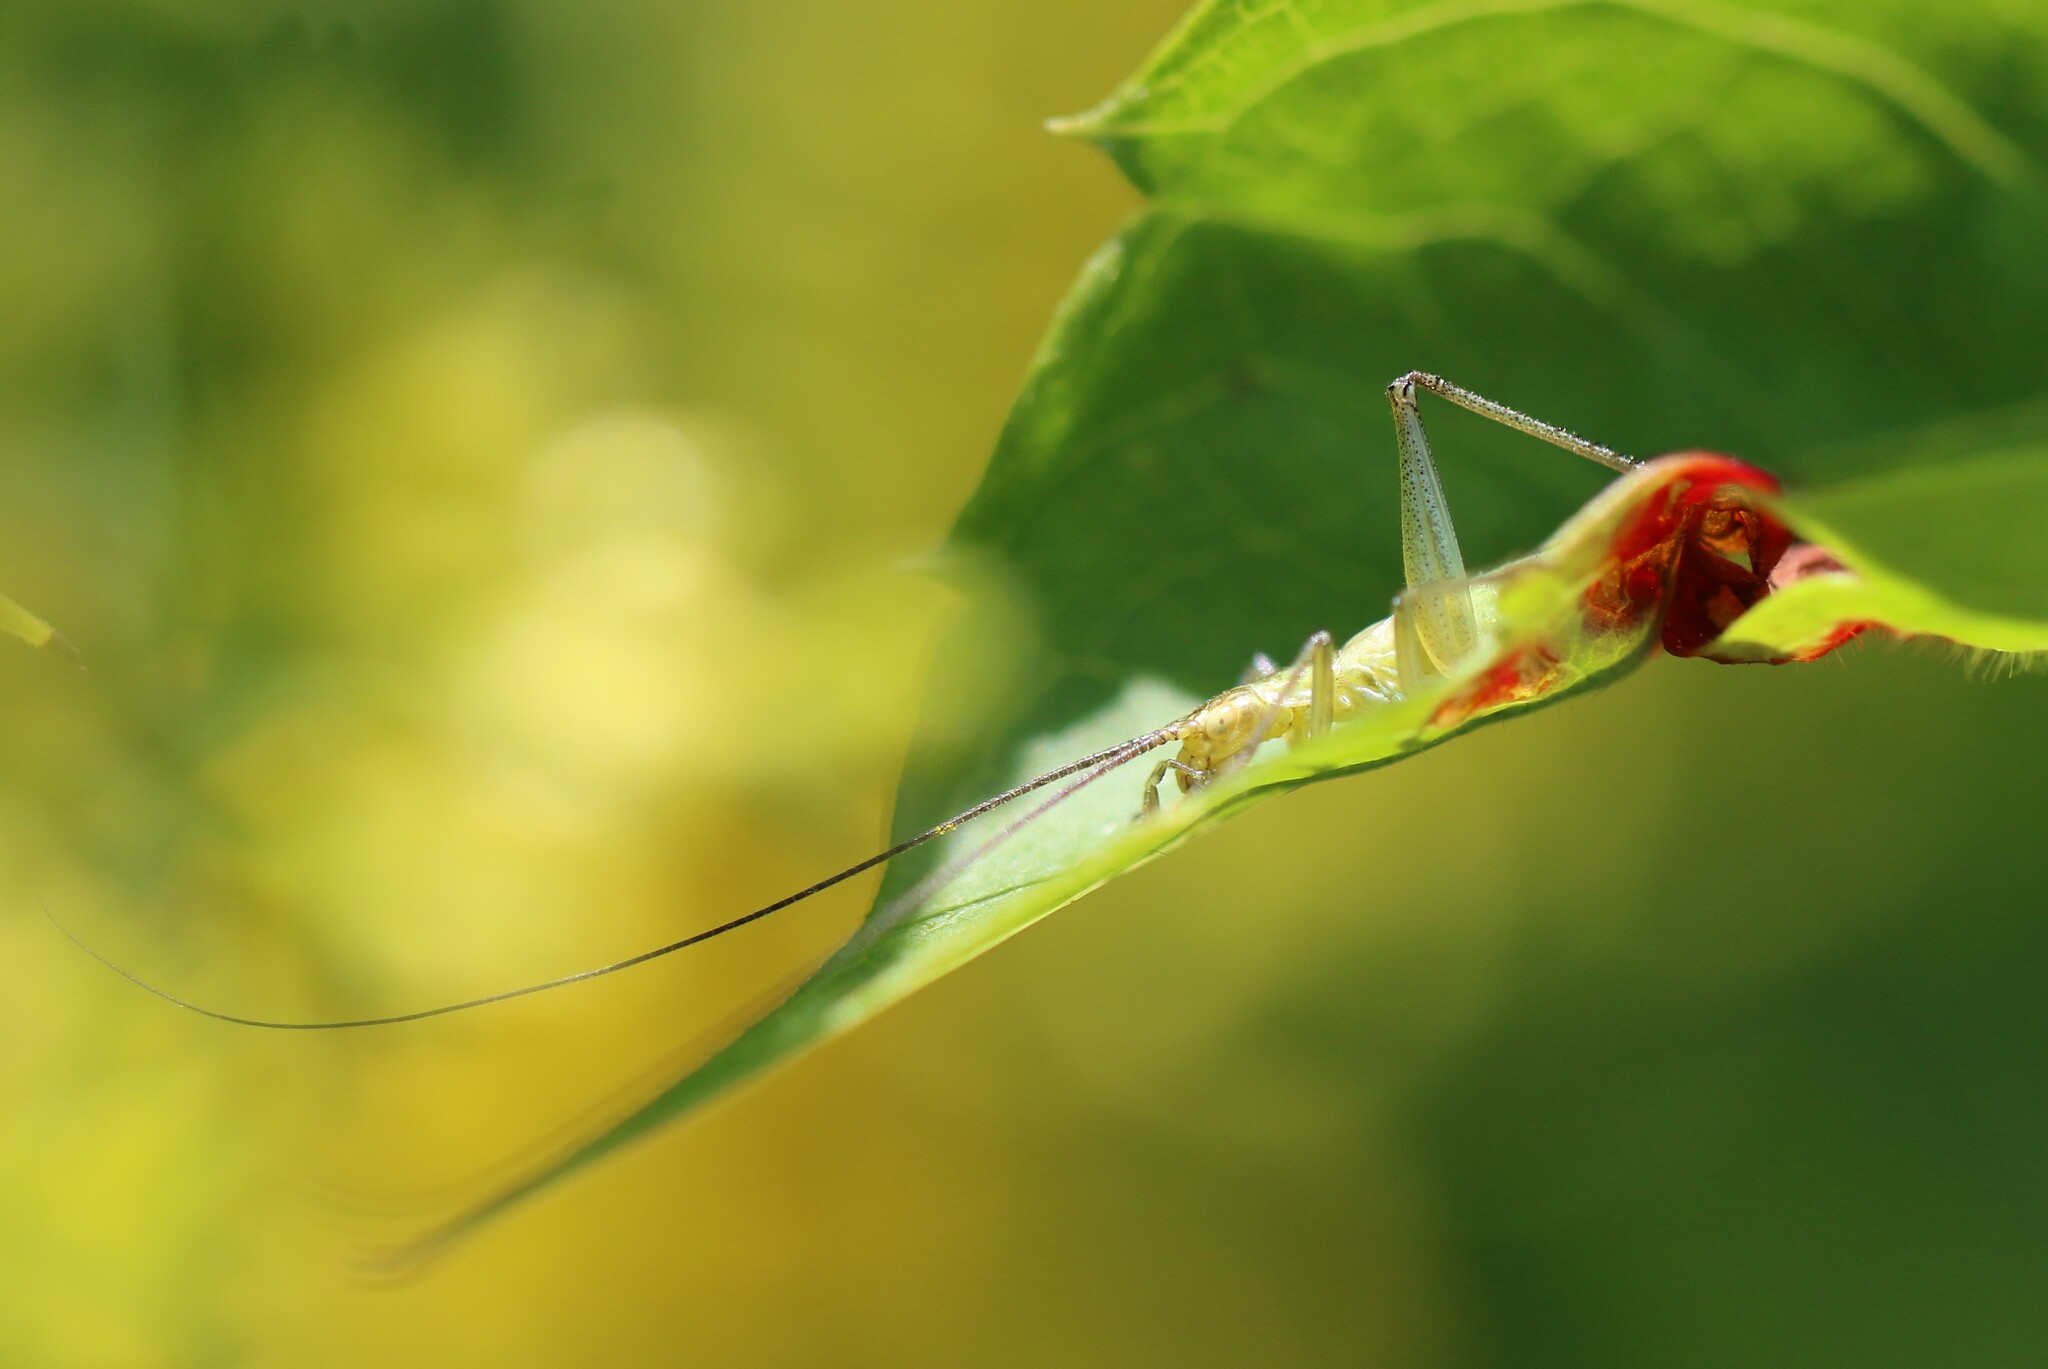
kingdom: Animalia
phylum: Arthropoda
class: Insecta
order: Orthoptera
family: Gryllidae
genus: Oecanthus
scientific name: Oecanthus nigricornis
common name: Black-horned tree cricket
